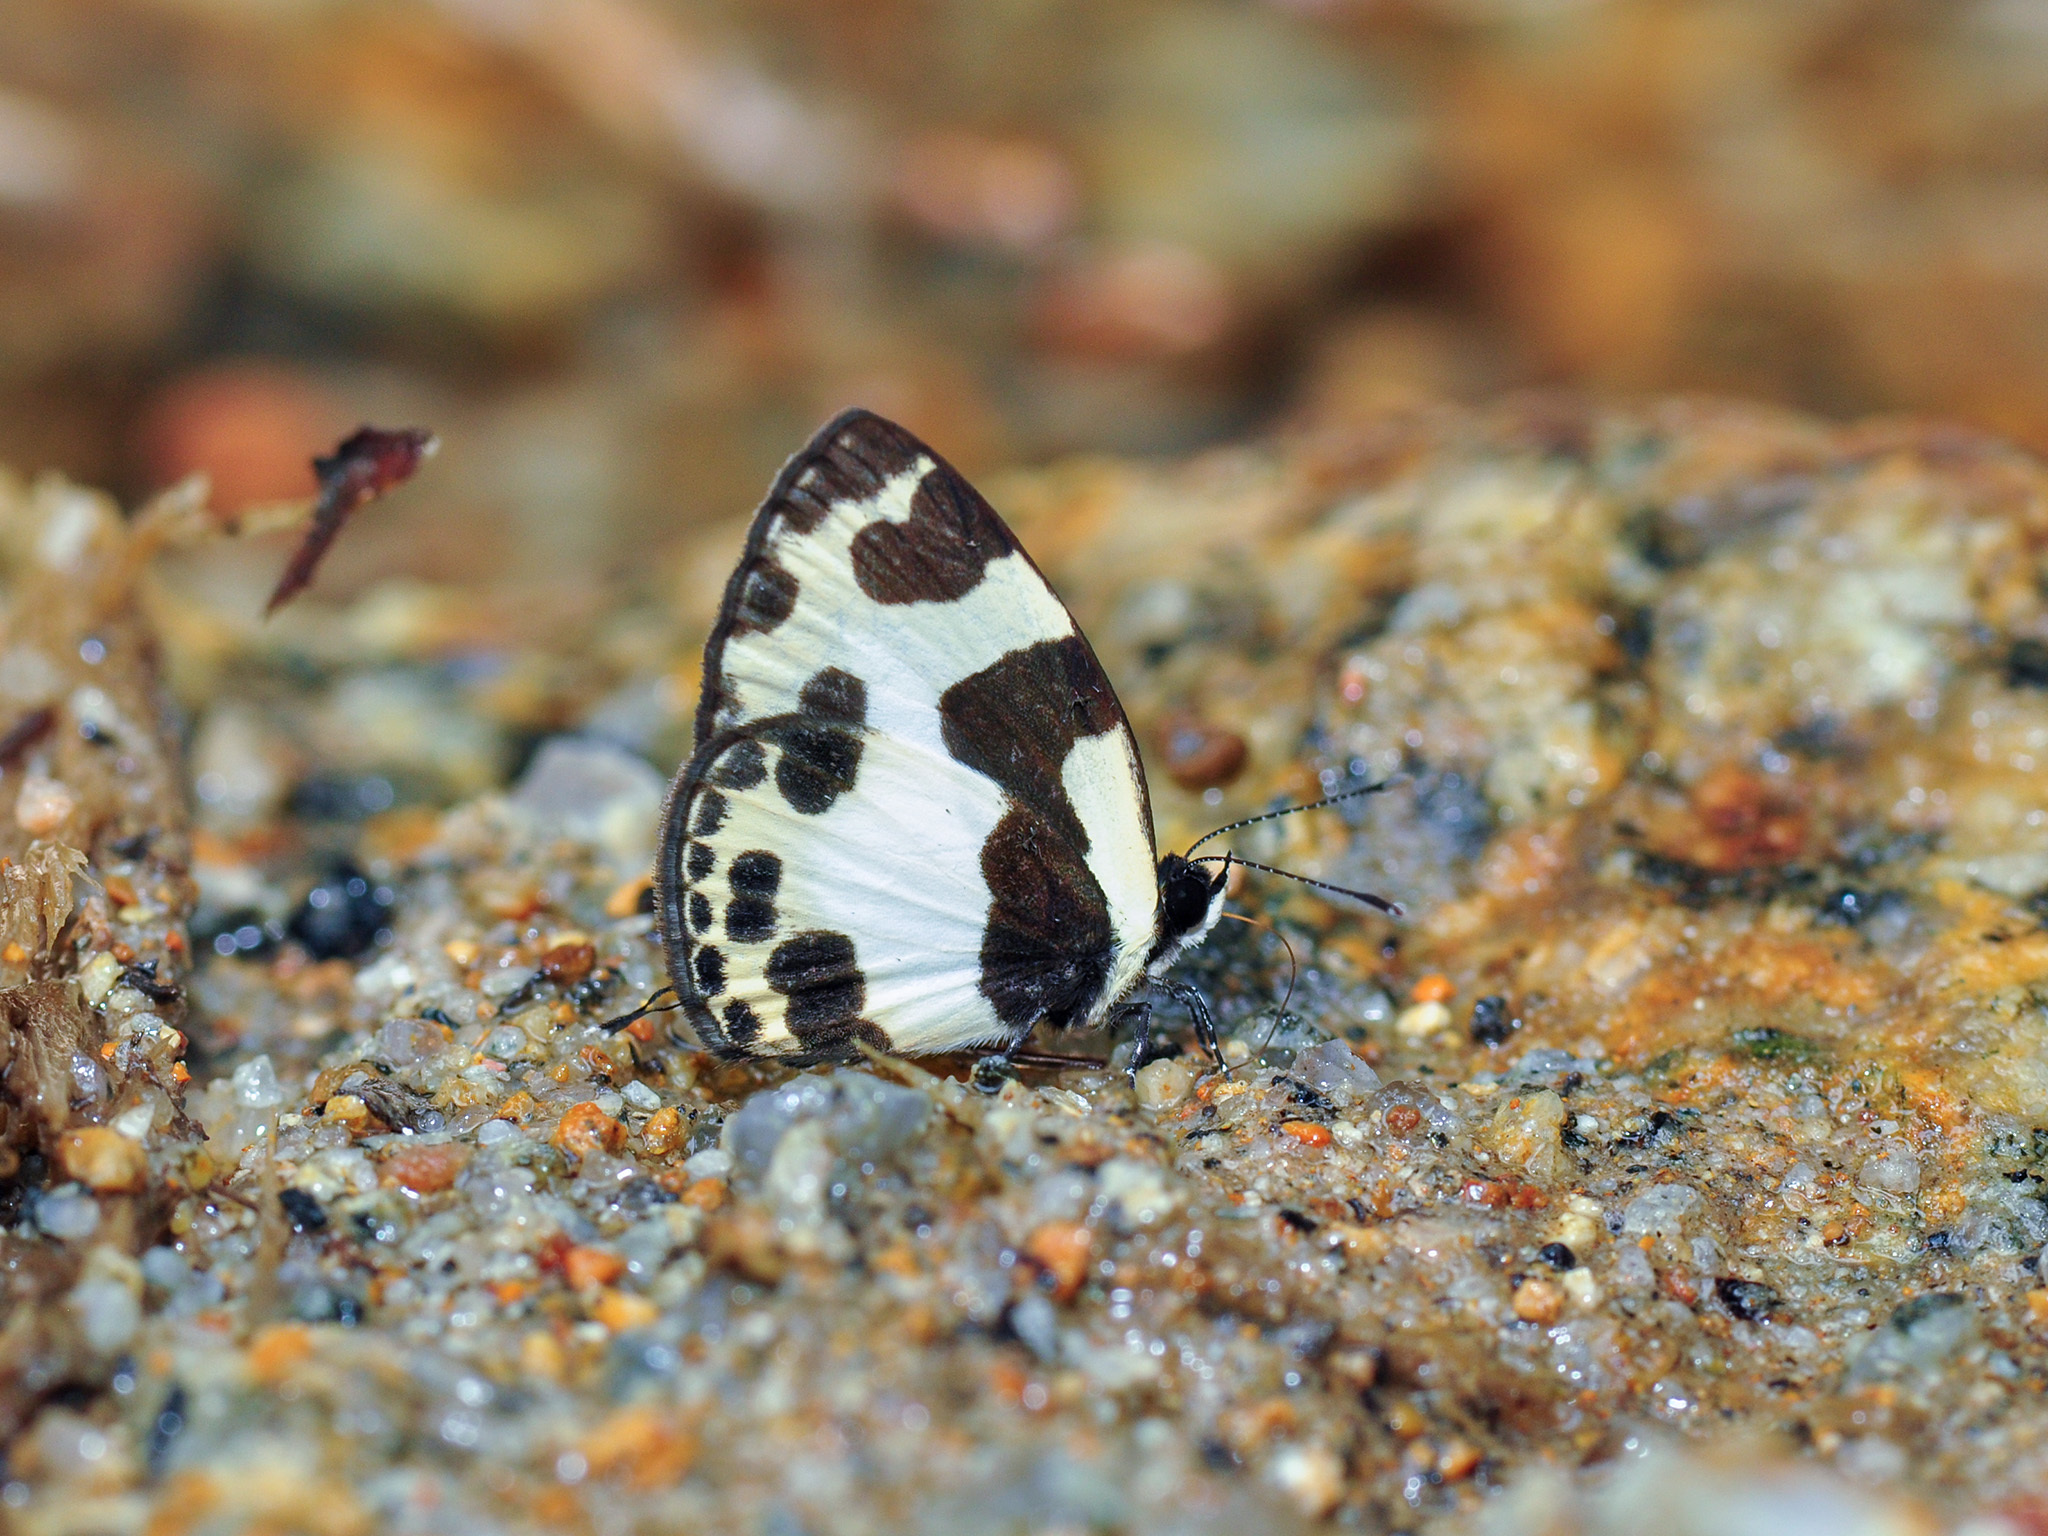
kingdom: Animalia
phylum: Arthropoda
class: Insecta
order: Lepidoptera
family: Lycaenidae
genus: Caleta
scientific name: Caleta elna
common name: Elbowed pierrot
